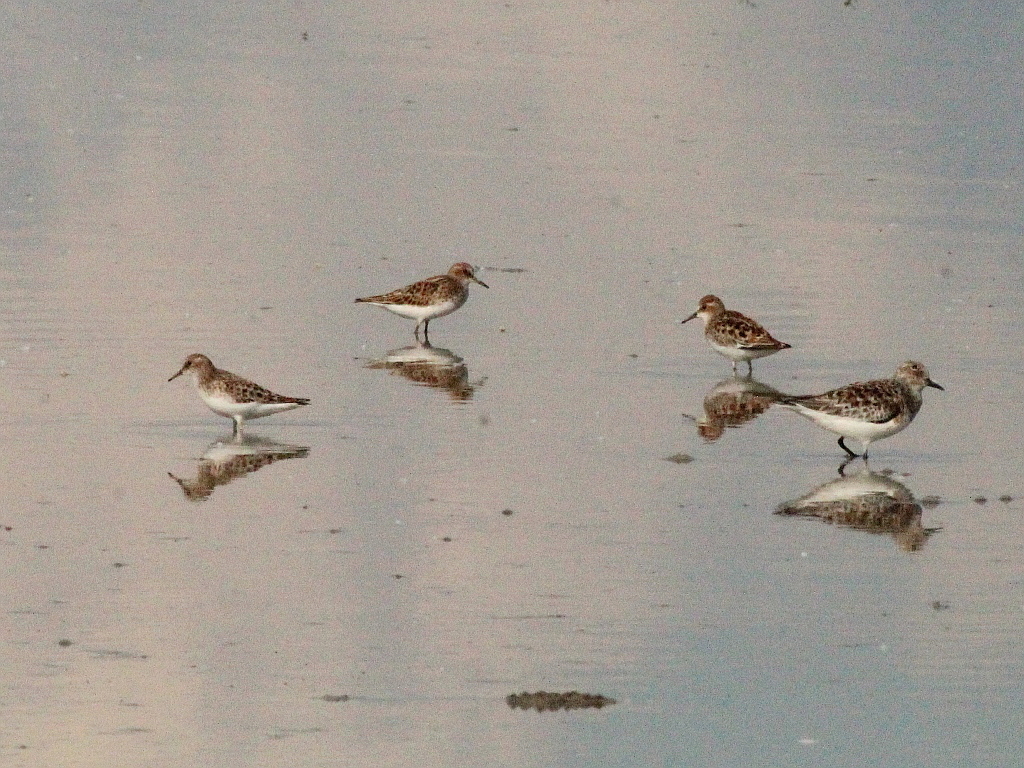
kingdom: Animalia
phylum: Chordata
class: Aves
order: Charadriiformes
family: Scolopacidae
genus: Calidris
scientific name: Calidris minuta
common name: Little stint
